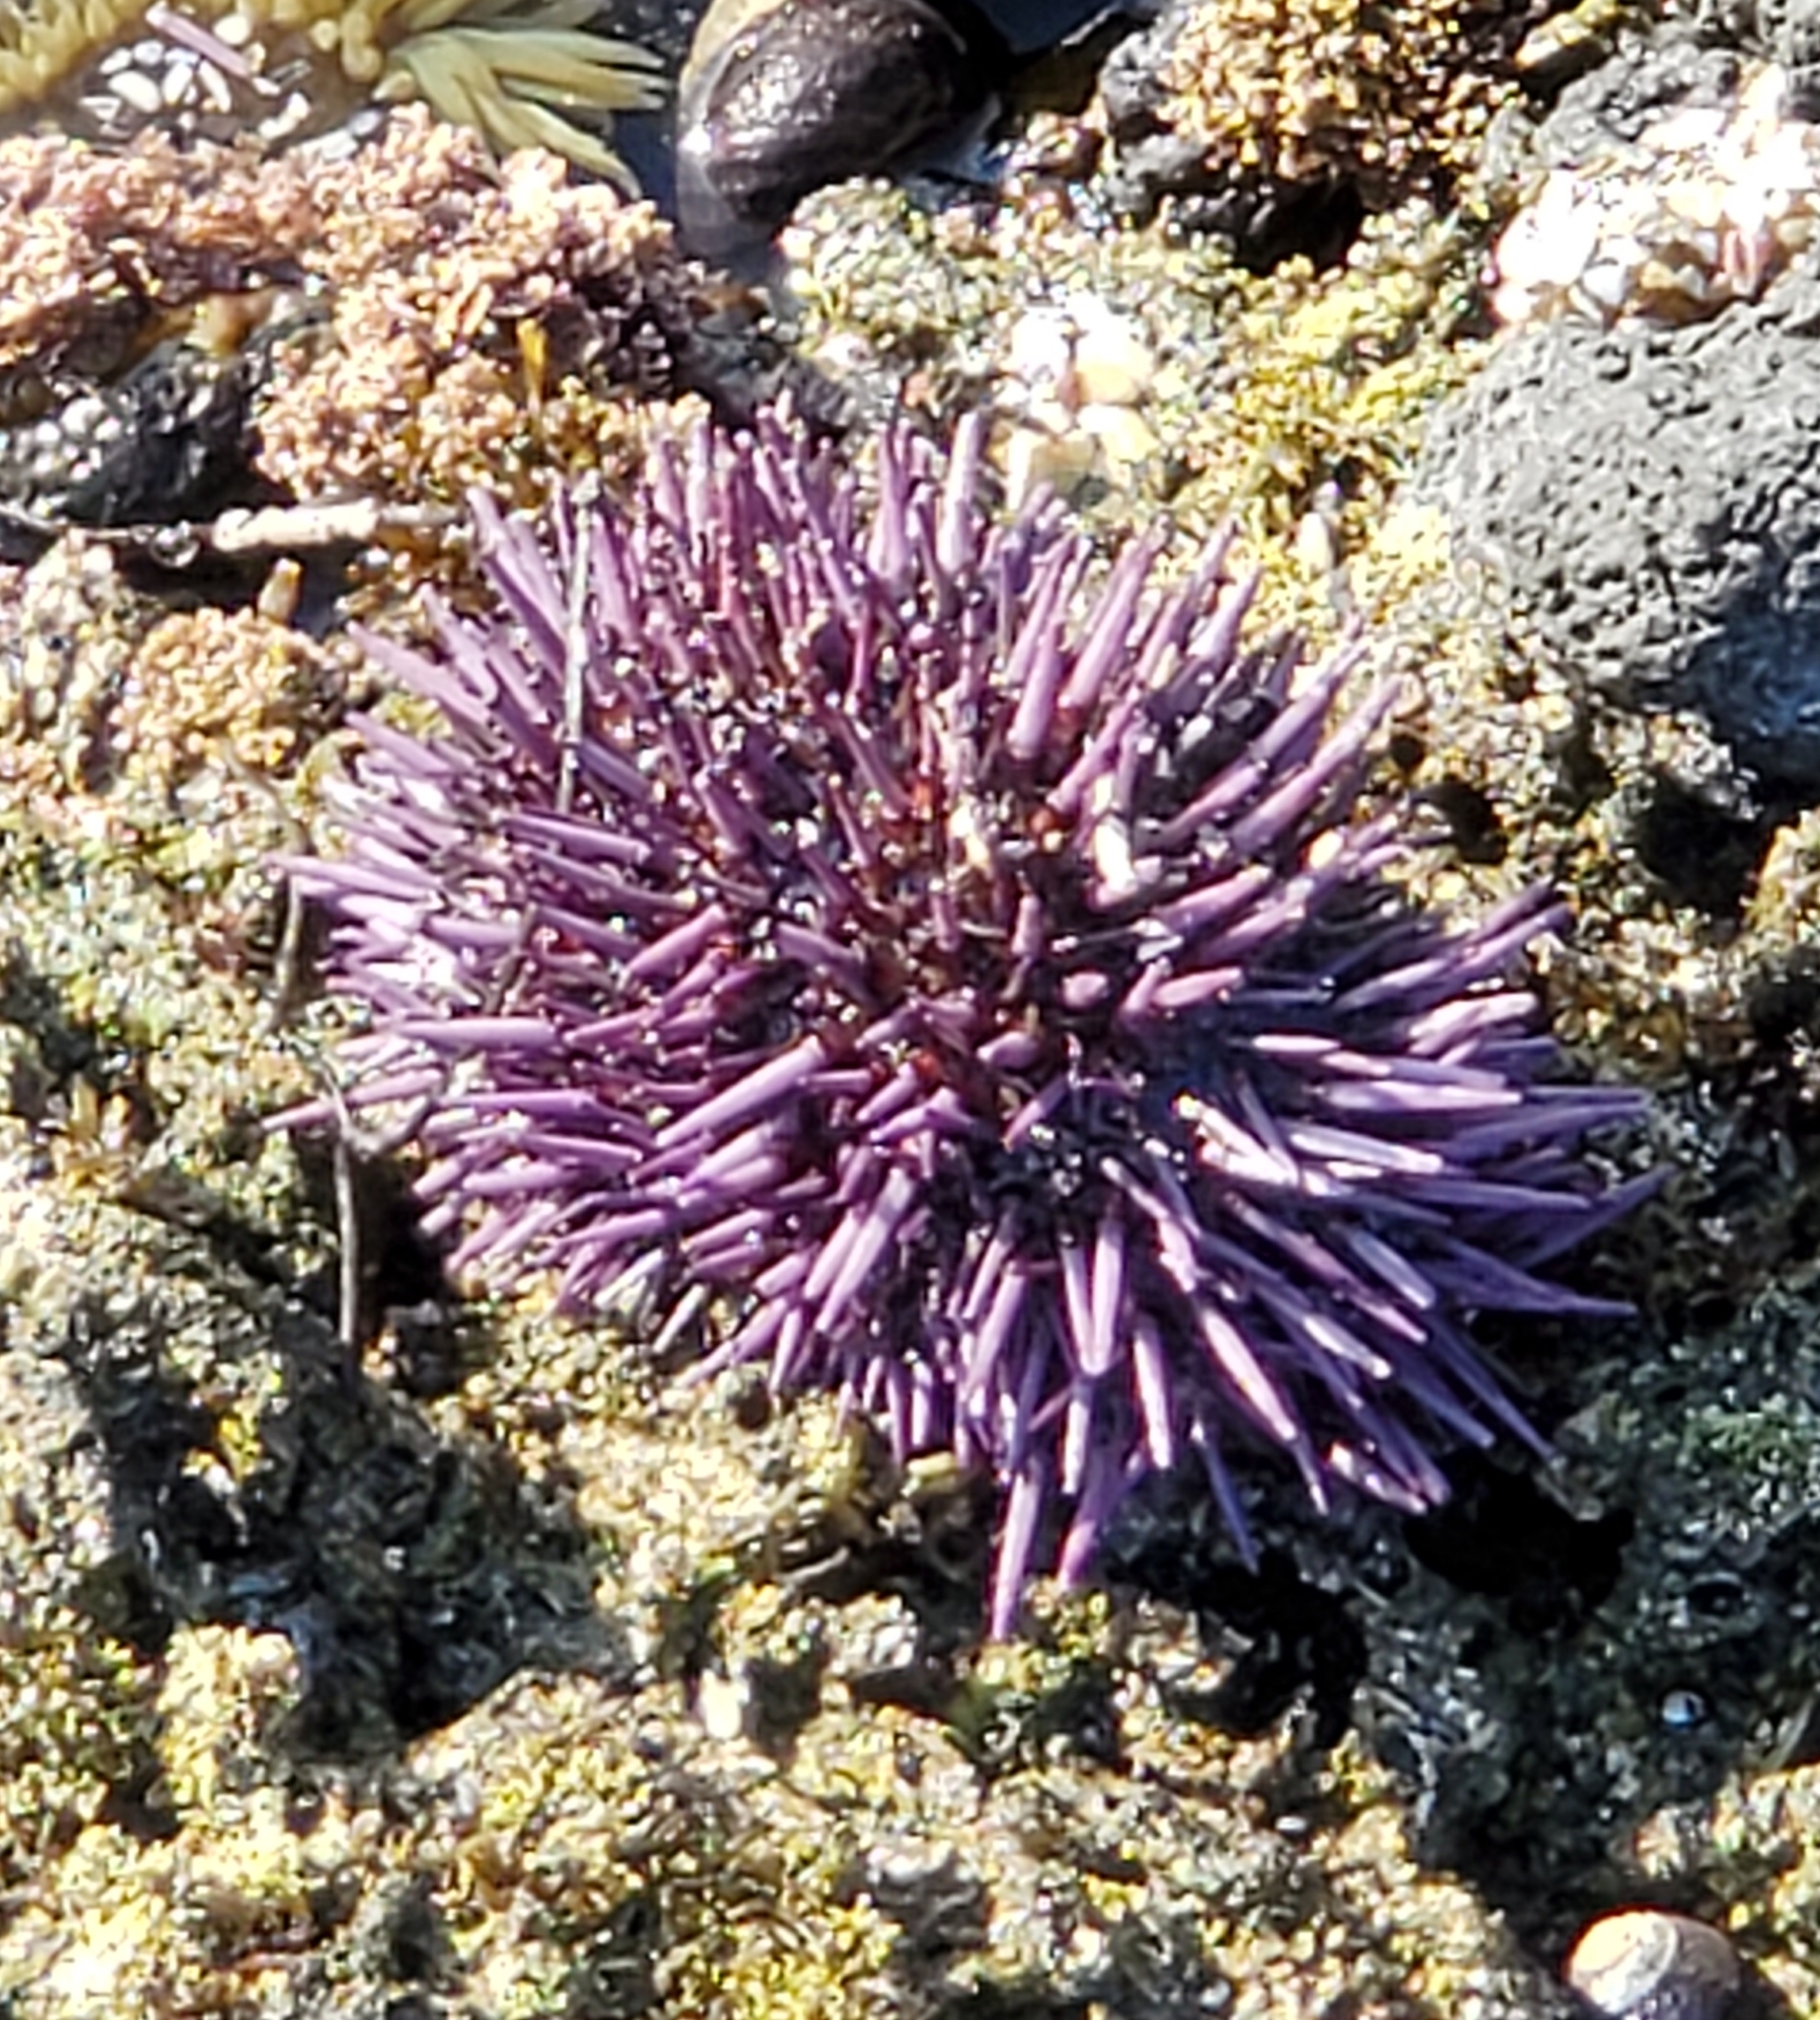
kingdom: Animalia
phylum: Echinodermata
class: Echinoidea
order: Camarodonta
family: Strongylocentrotidae
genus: Strongylocentrotus
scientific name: Strongylocentrotus purpuratus
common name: Purple sea urchin
